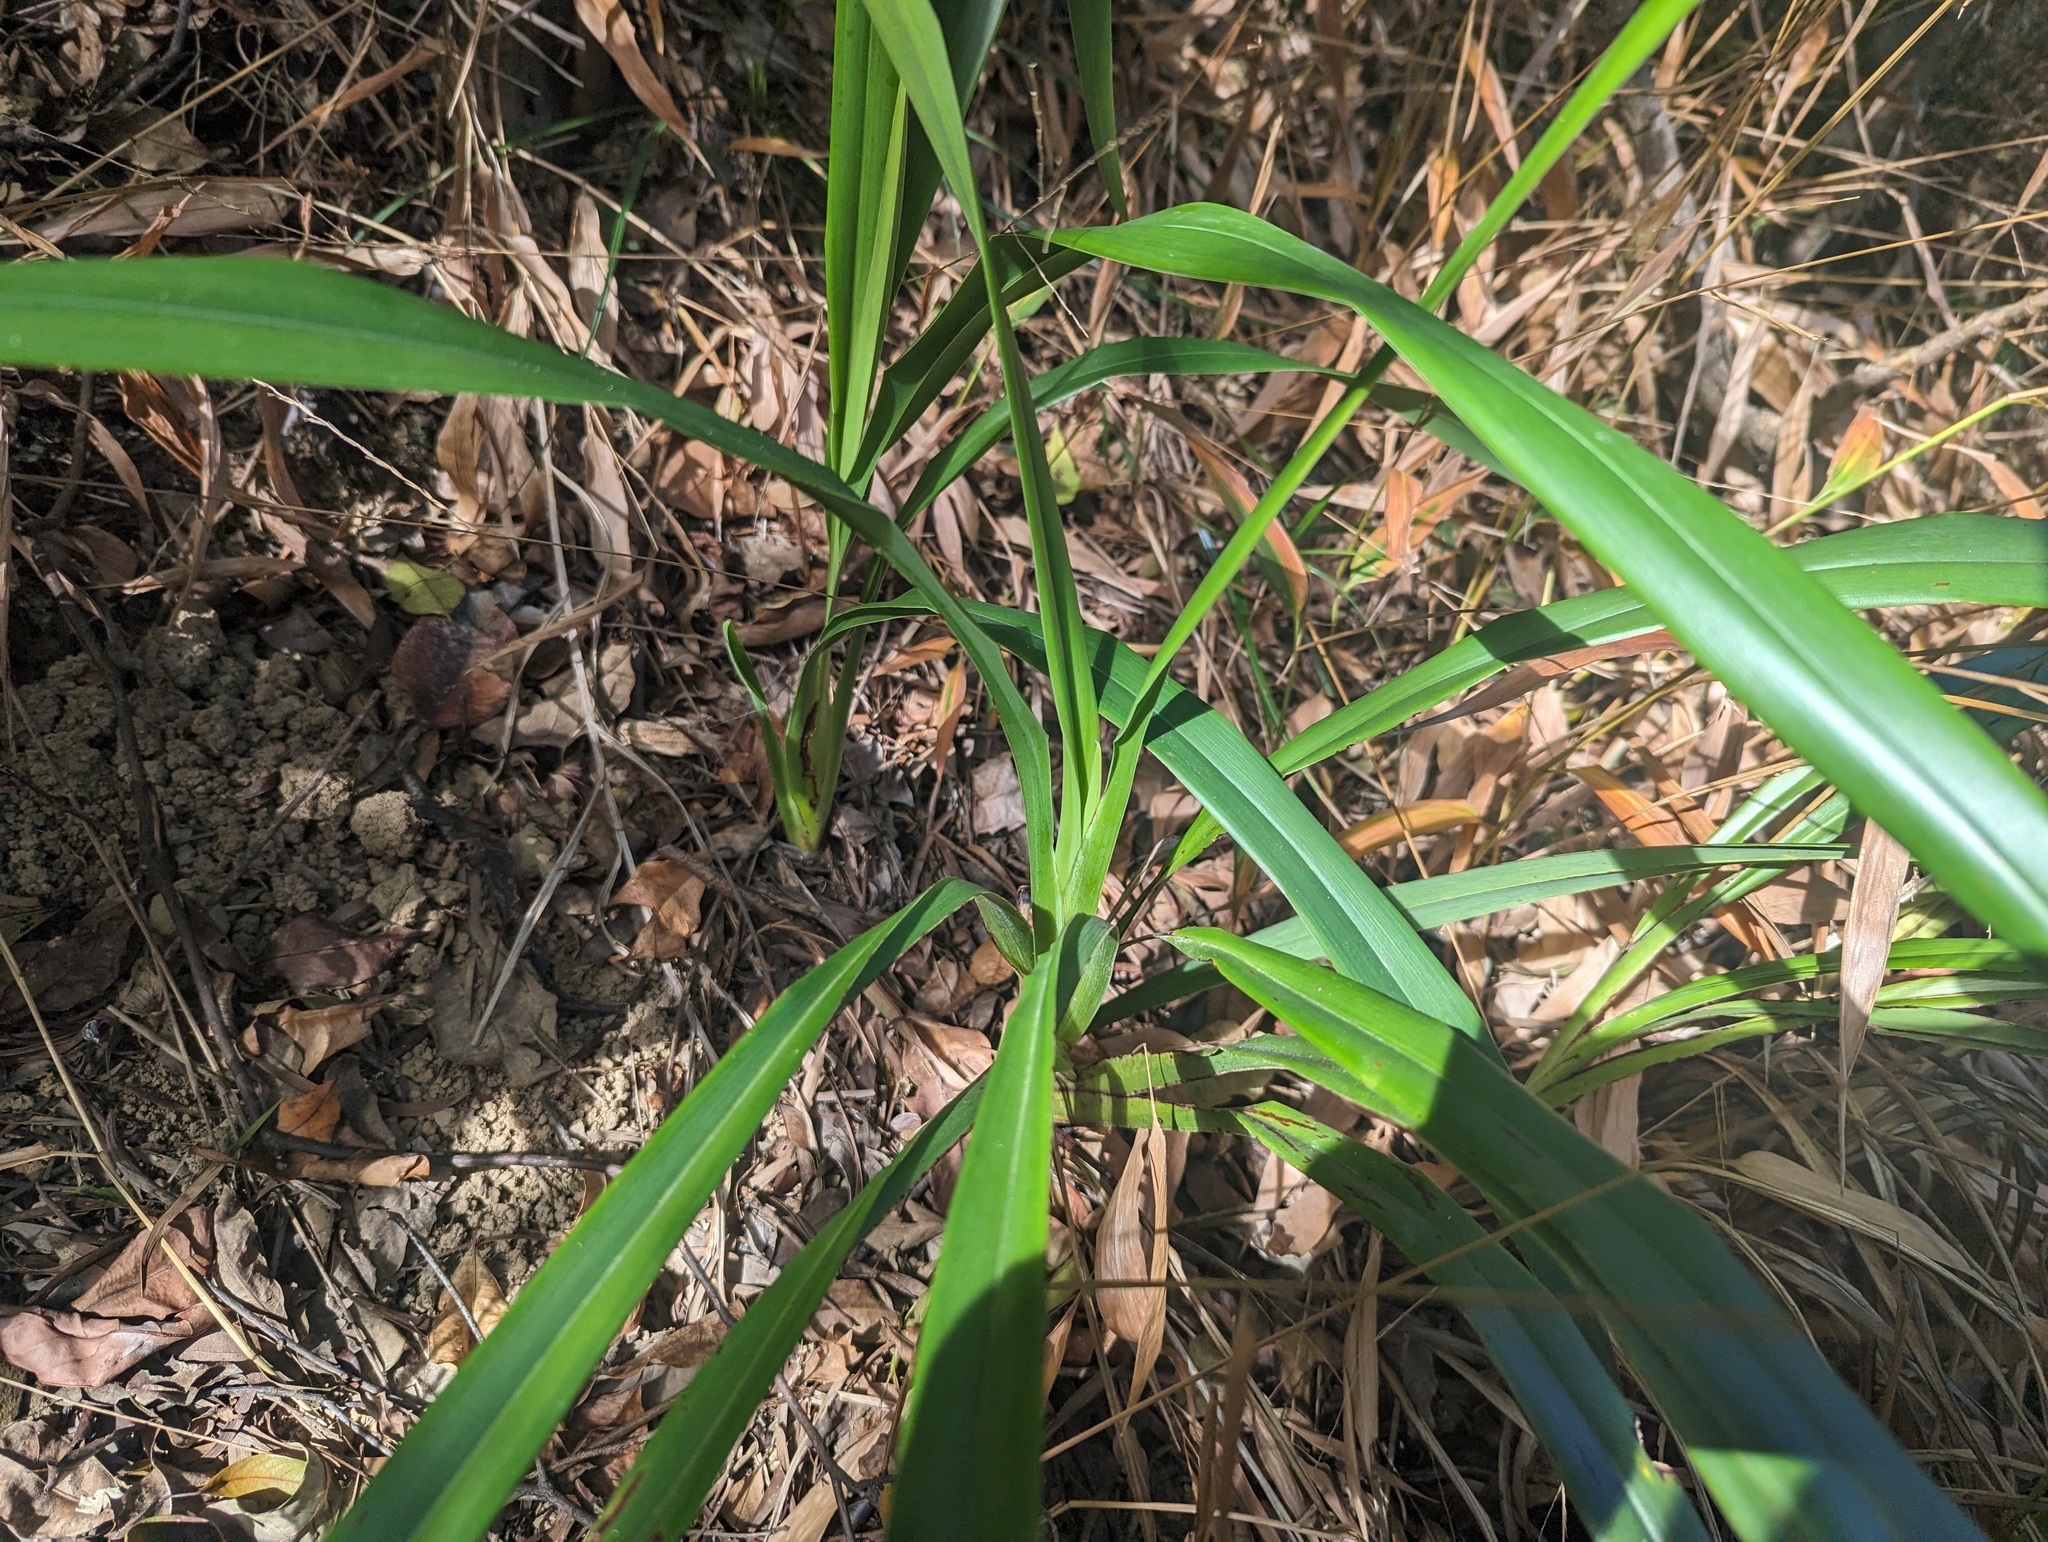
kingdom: Plantae
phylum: Tracheophyta
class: Liliopsida
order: Asparagales
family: Asphodelaceae
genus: Dianella
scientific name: Dianella ensifolia
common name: New zealand lilyplant
